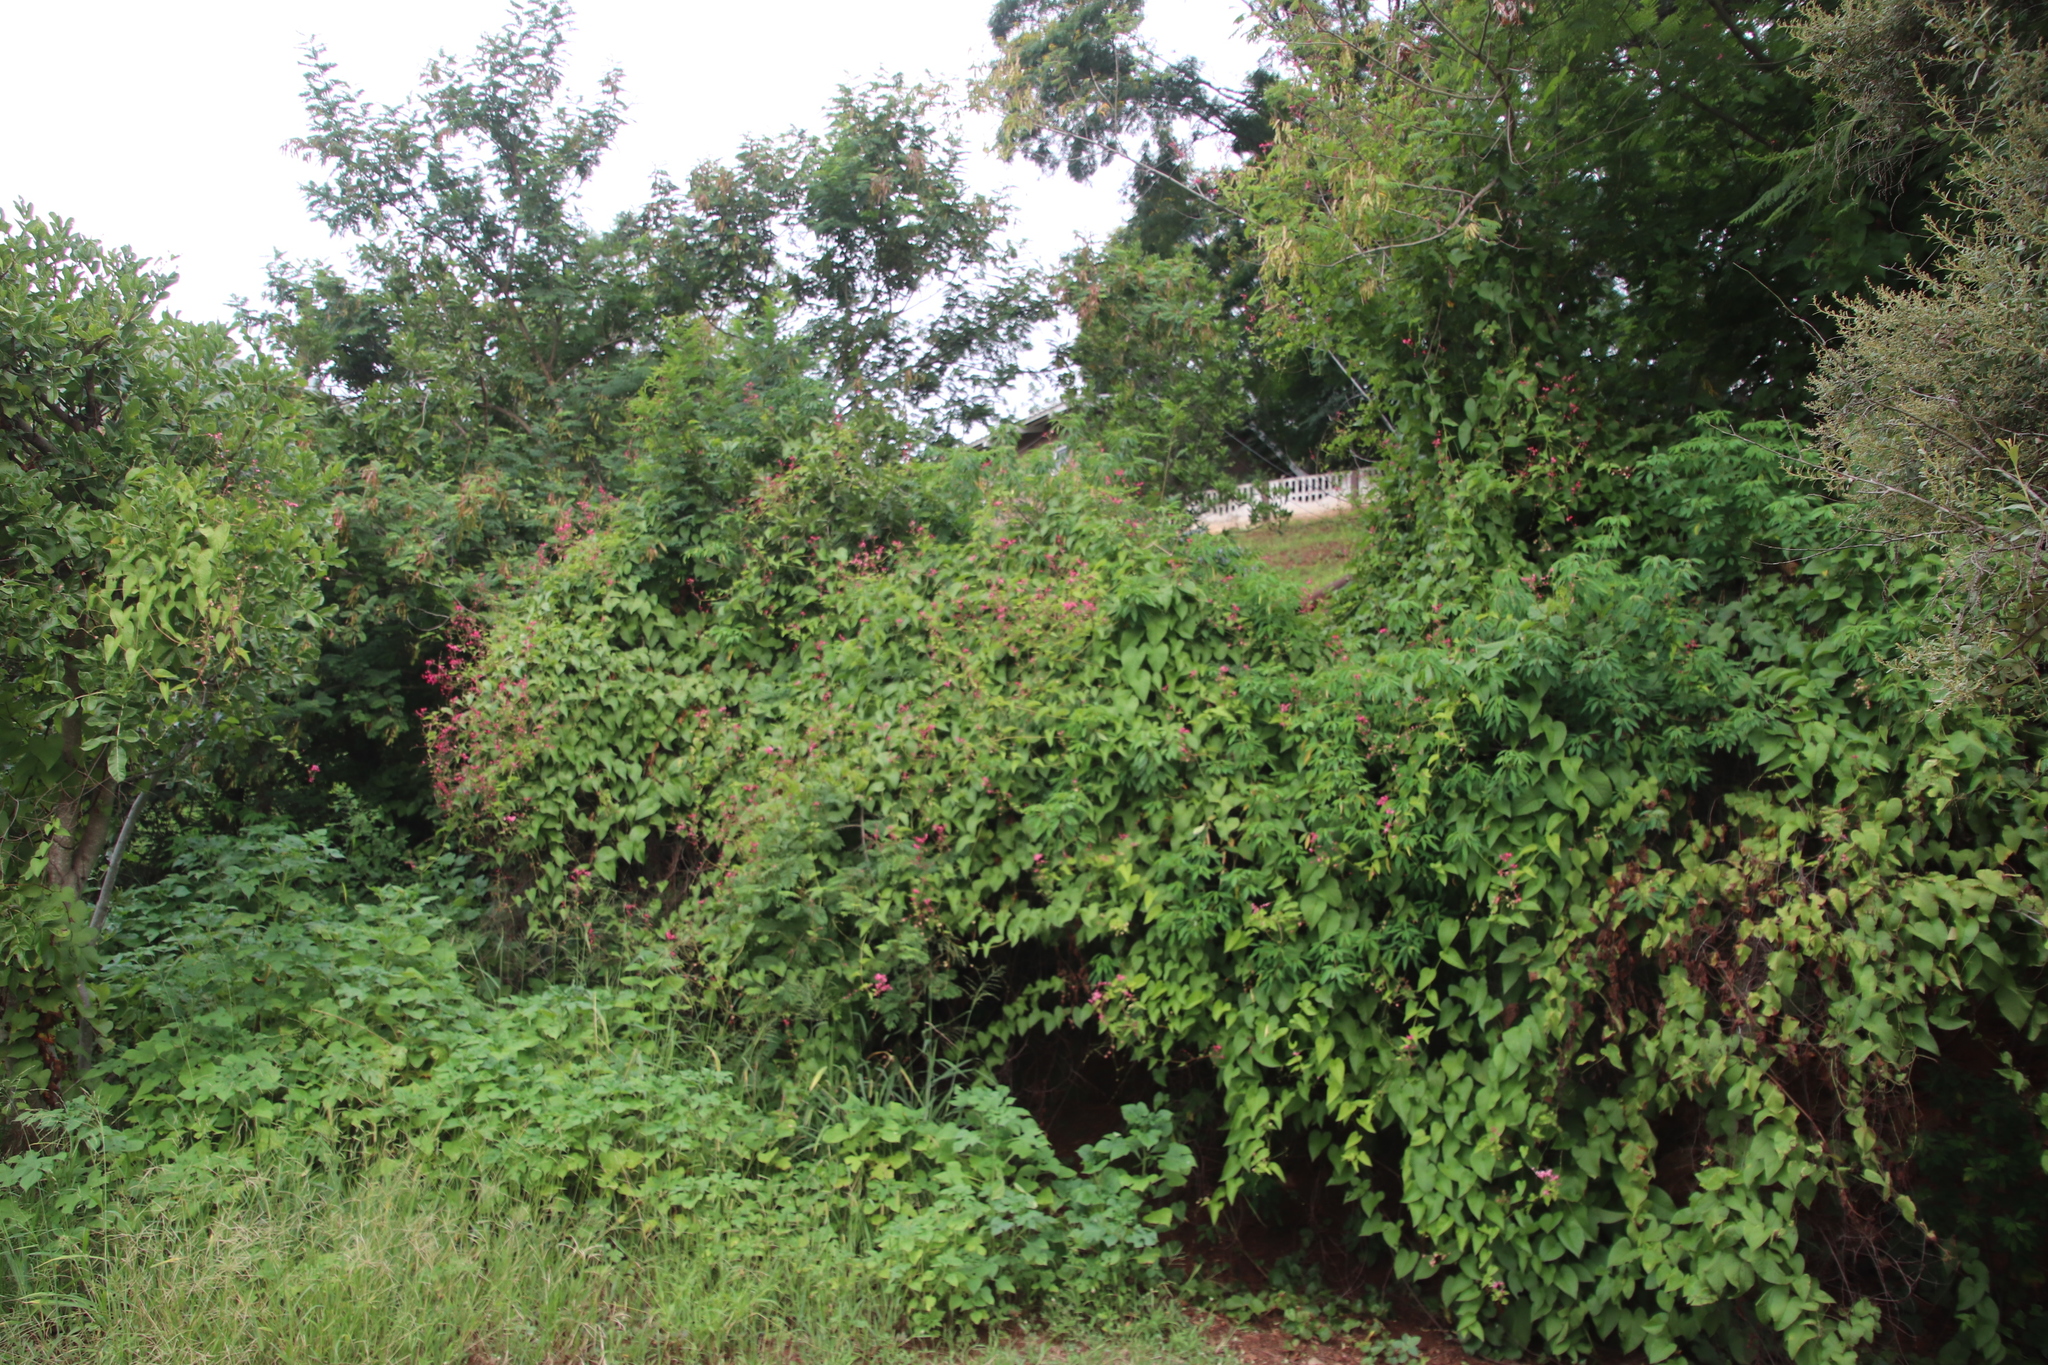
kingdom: Plantae
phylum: Tracheophyta
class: Magnoliopsida
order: Caryophyllales
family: Polygonaceae
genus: Antigonon
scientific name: Antigonon leptopus
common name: Coral vine
